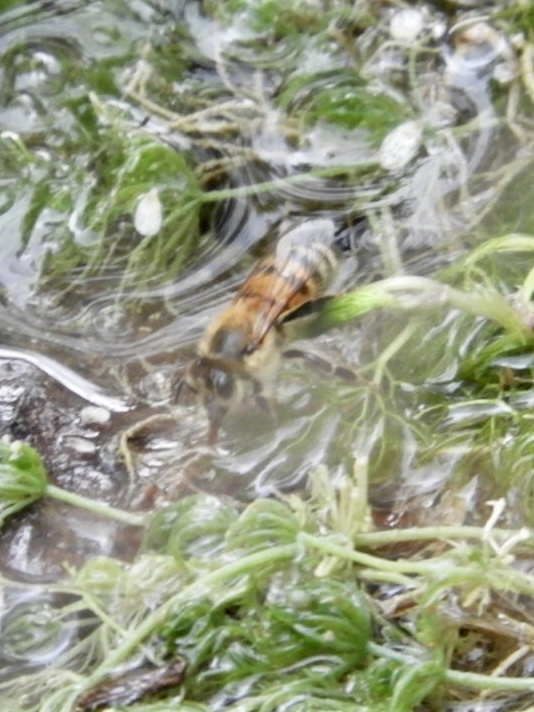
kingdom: Animalia
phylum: Arthropoda
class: Insecta
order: Hymenoptera
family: Apidae
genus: Apis
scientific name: Apis mellifera
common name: Honey bee
